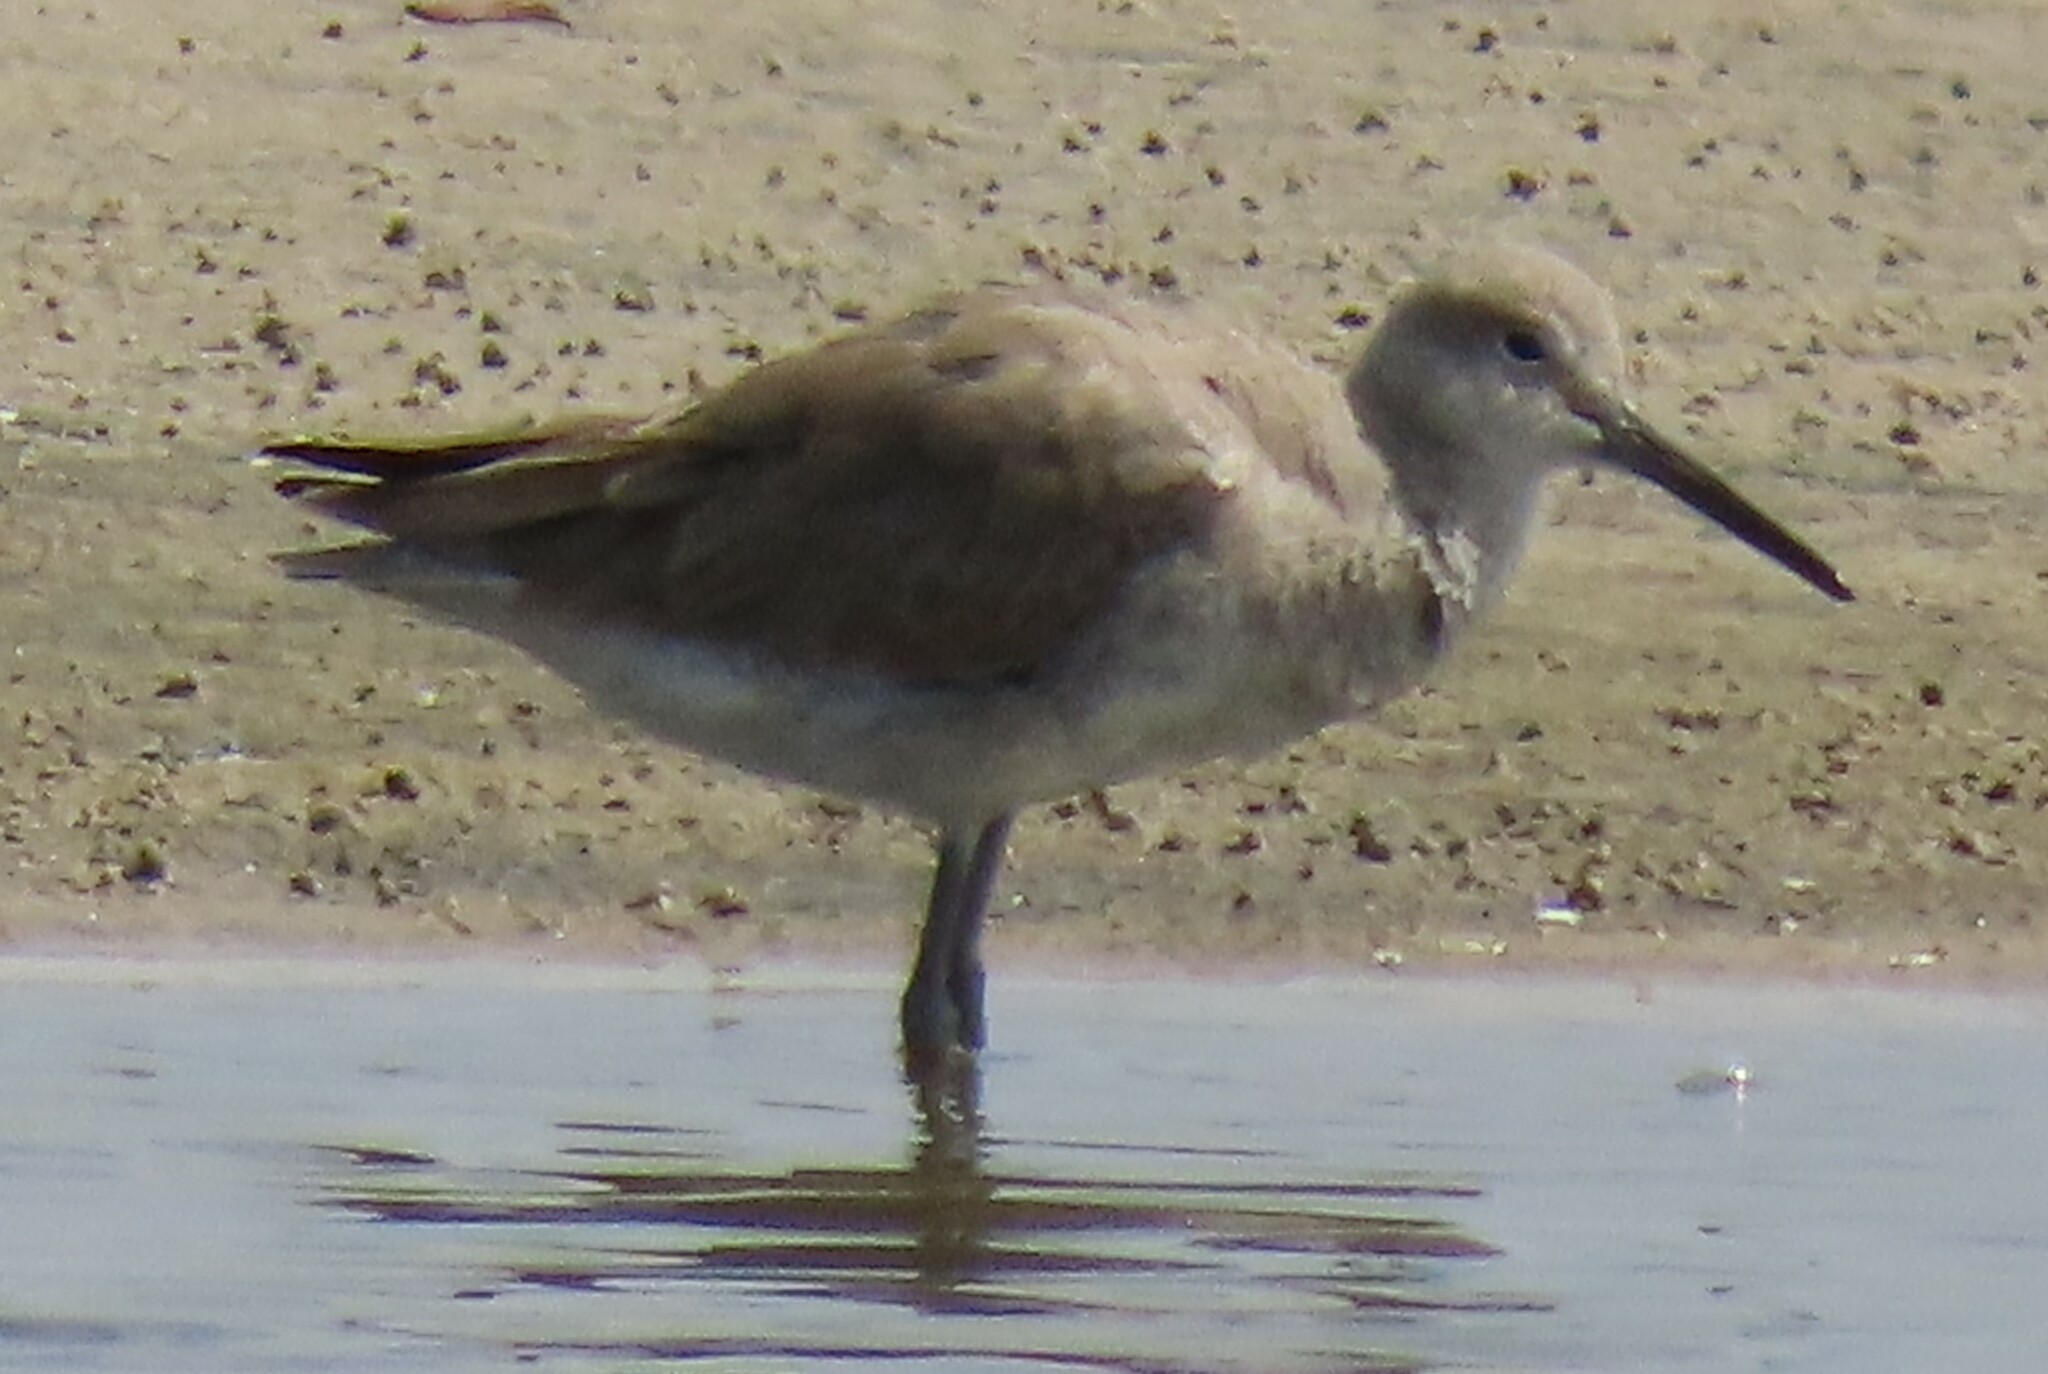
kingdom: Animalia
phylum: Chordata
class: Aves
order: Charadriiformes
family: Scolopacidae
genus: Tringa
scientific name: Tringa semipalmata
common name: Willet
